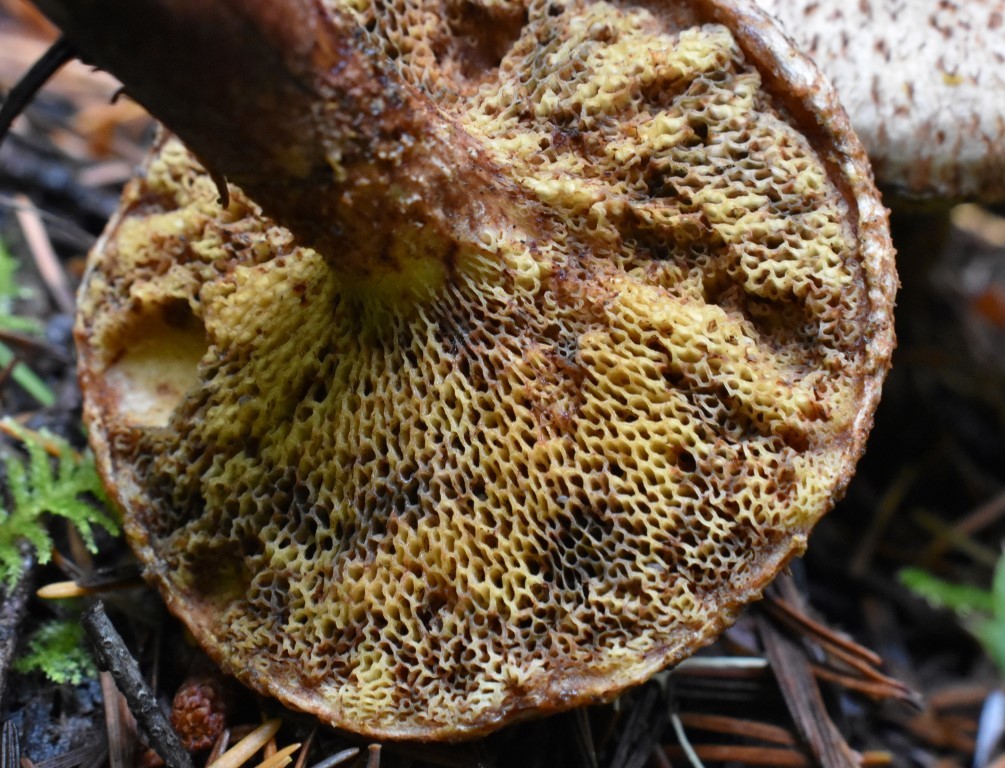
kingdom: Fungi
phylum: Basidiomycota
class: Agaricomycetes
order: Boletales
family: Suillaceae
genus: Suillus
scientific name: Suillus lakei
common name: Western painted suillus
